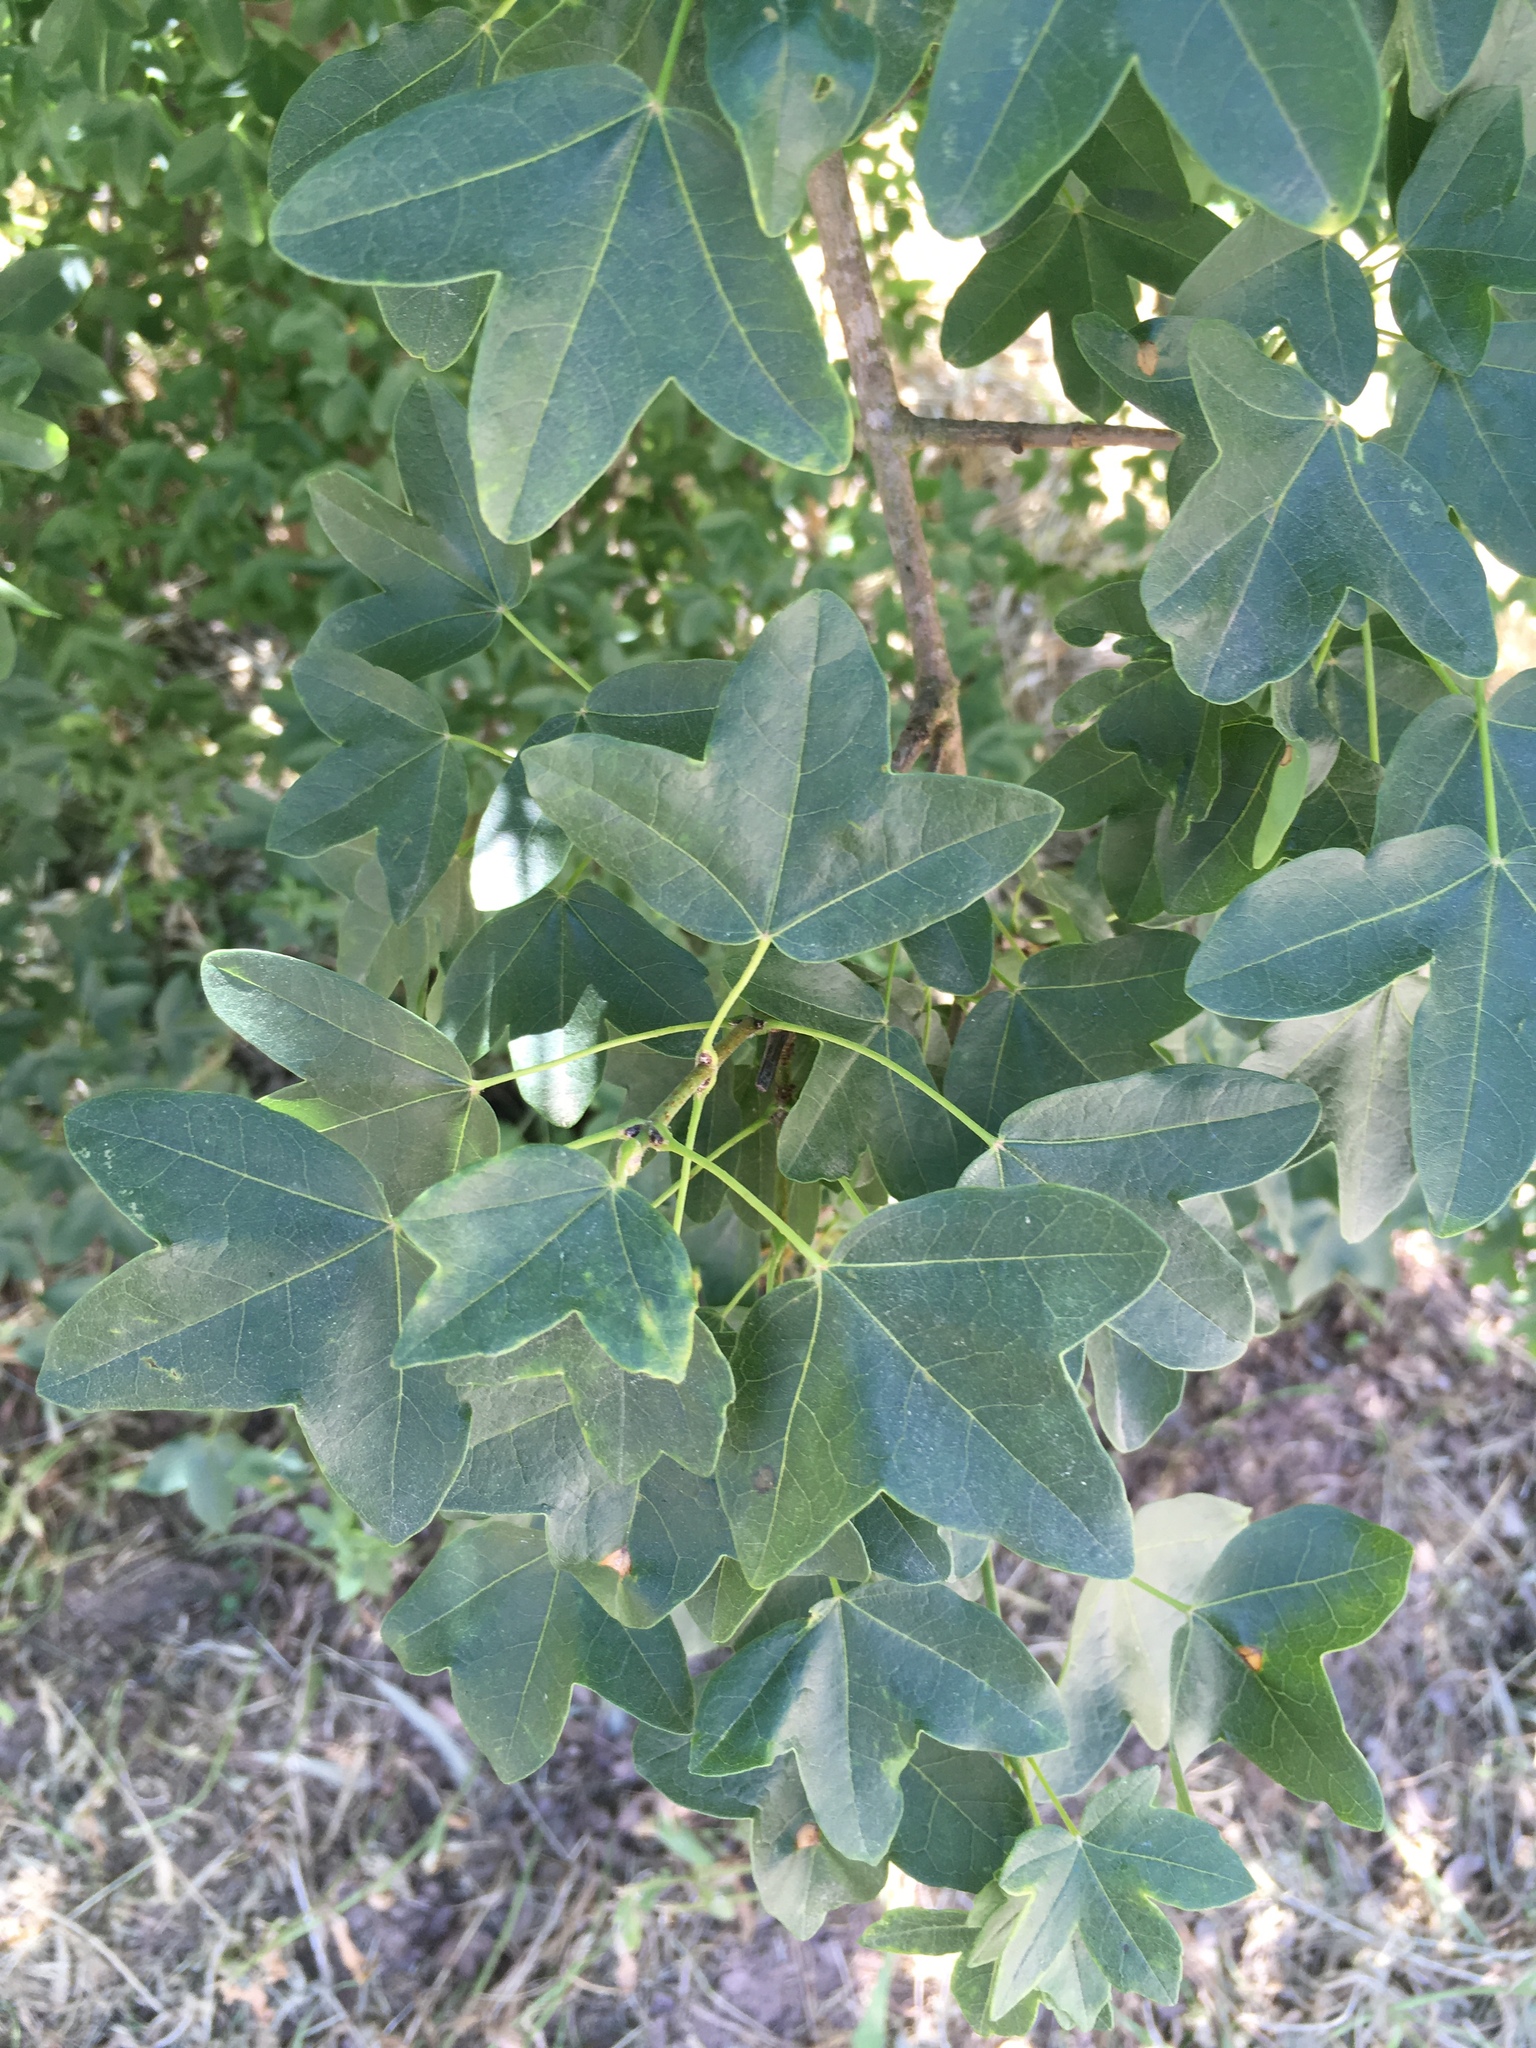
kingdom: Plantae
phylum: Tracheophyta
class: Magnoliopsida
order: Sapindales
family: Sapindaceae
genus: Acer
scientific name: Acer monspessulanum
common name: Montpellier maple
